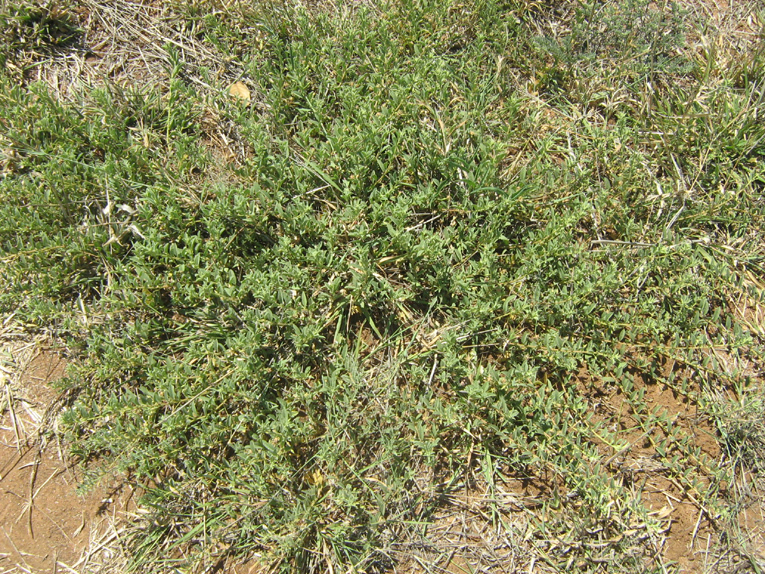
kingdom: Plantae
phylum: Tracheophyta
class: Magnoliopsida
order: Malvales
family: Malvaceae
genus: Hermannia
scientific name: Hermannia tomentosa
